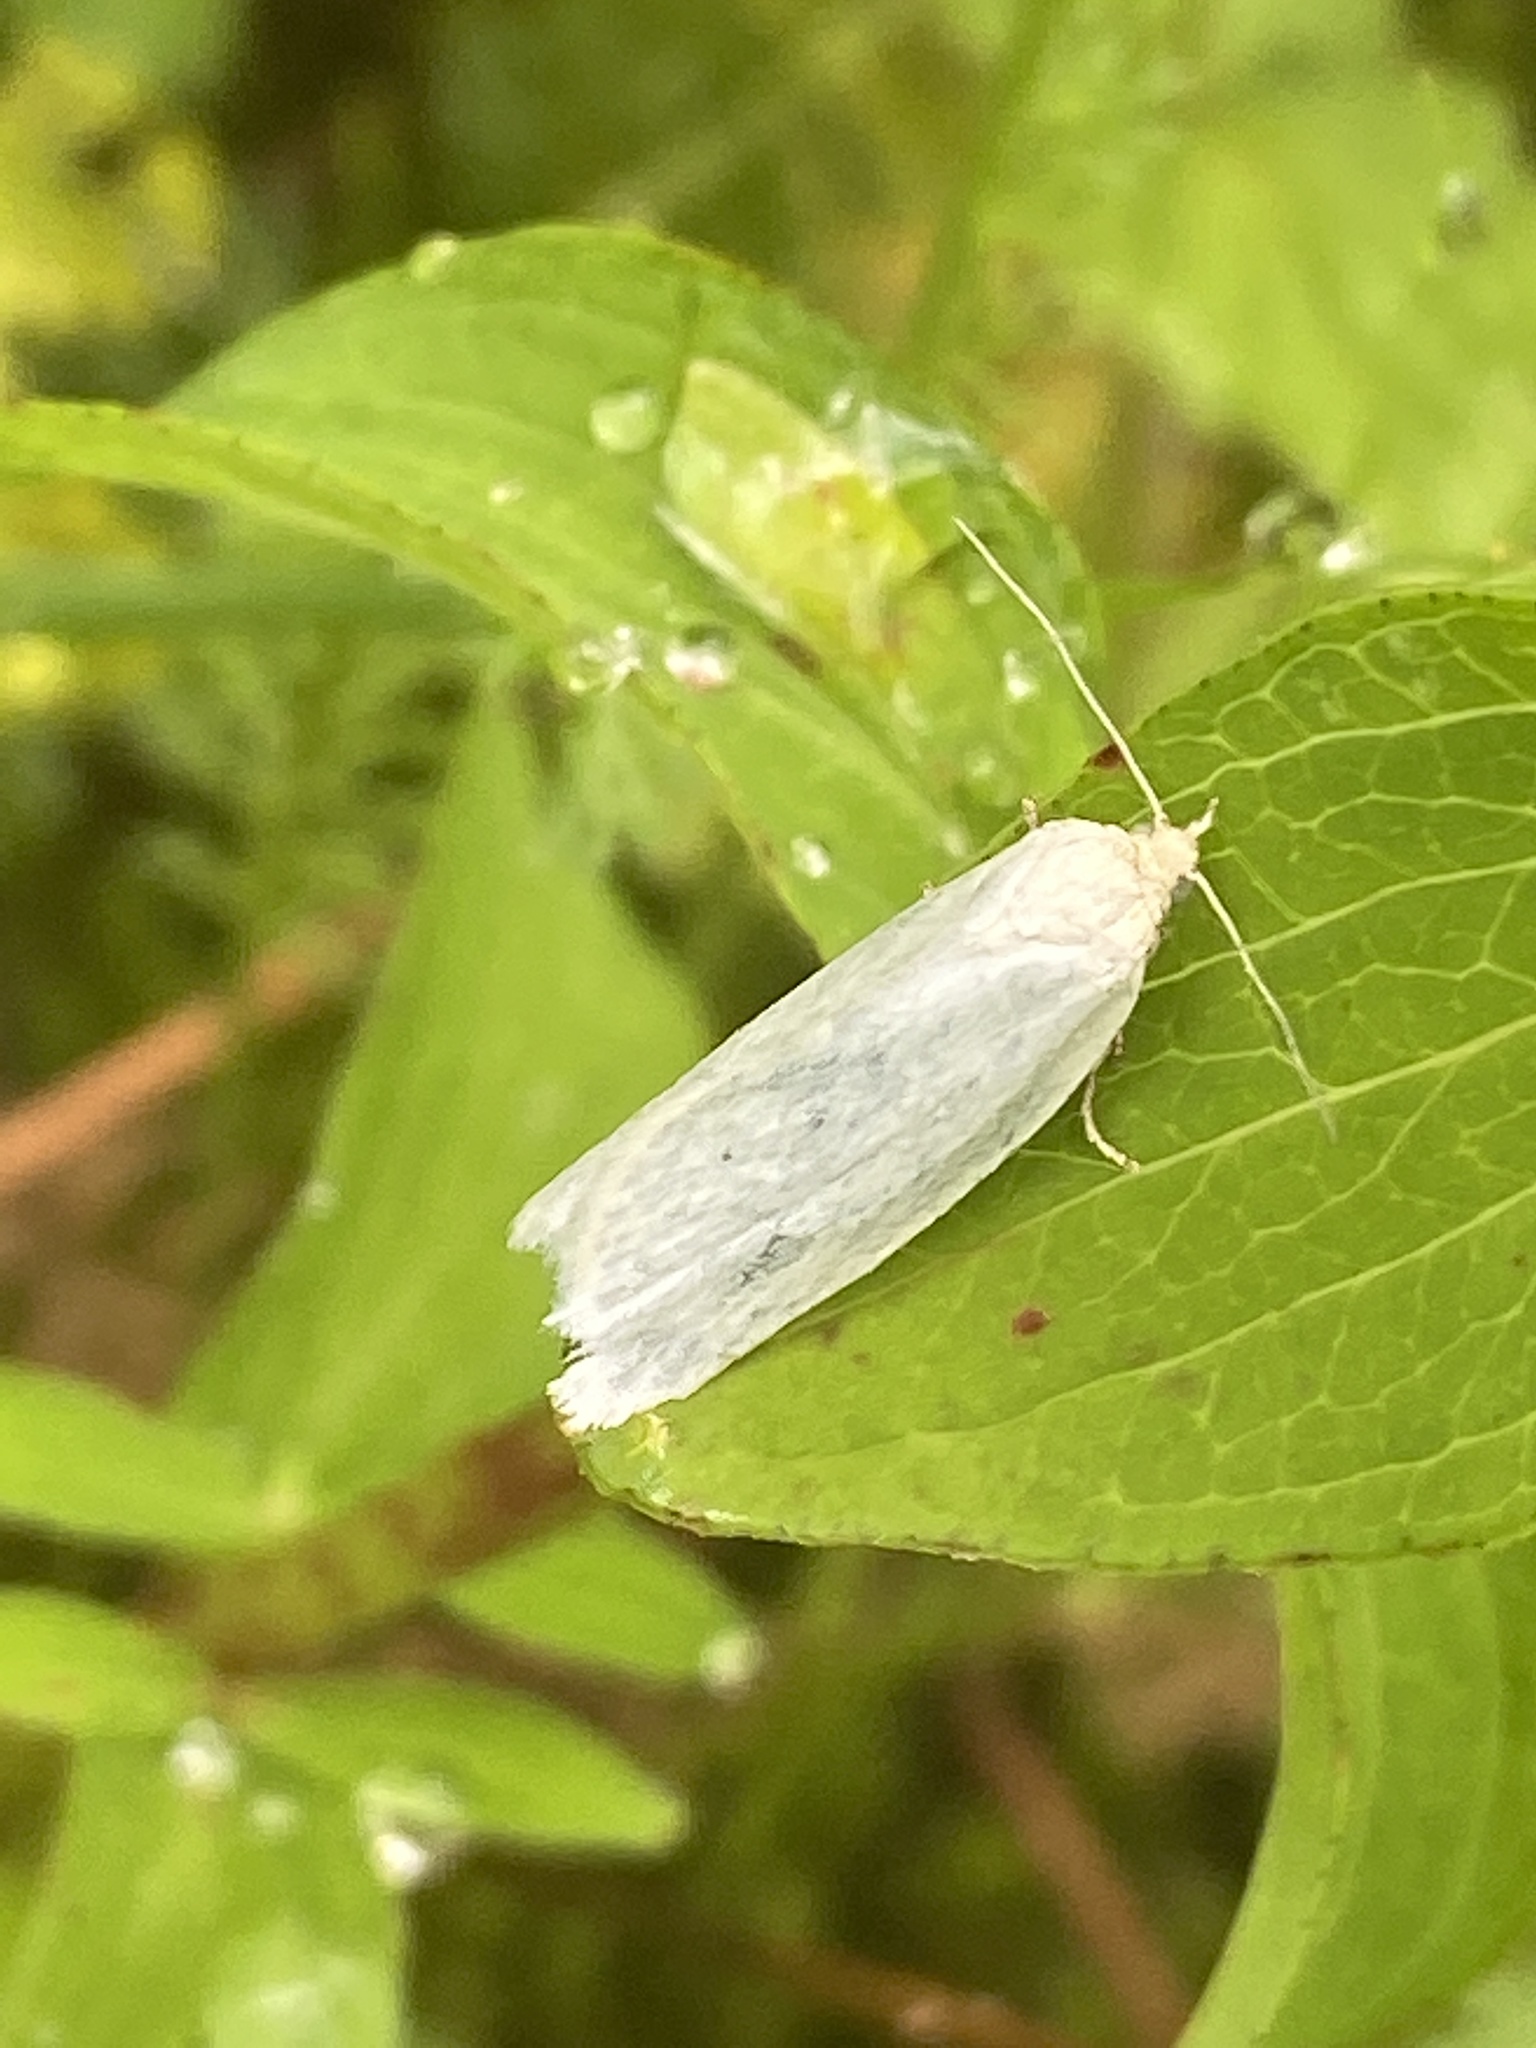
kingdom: Animalia
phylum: Arthropoda
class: Insecta
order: Lepidoptera
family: Tortricidae
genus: Eana
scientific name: Eana argentana
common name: Silver shade
